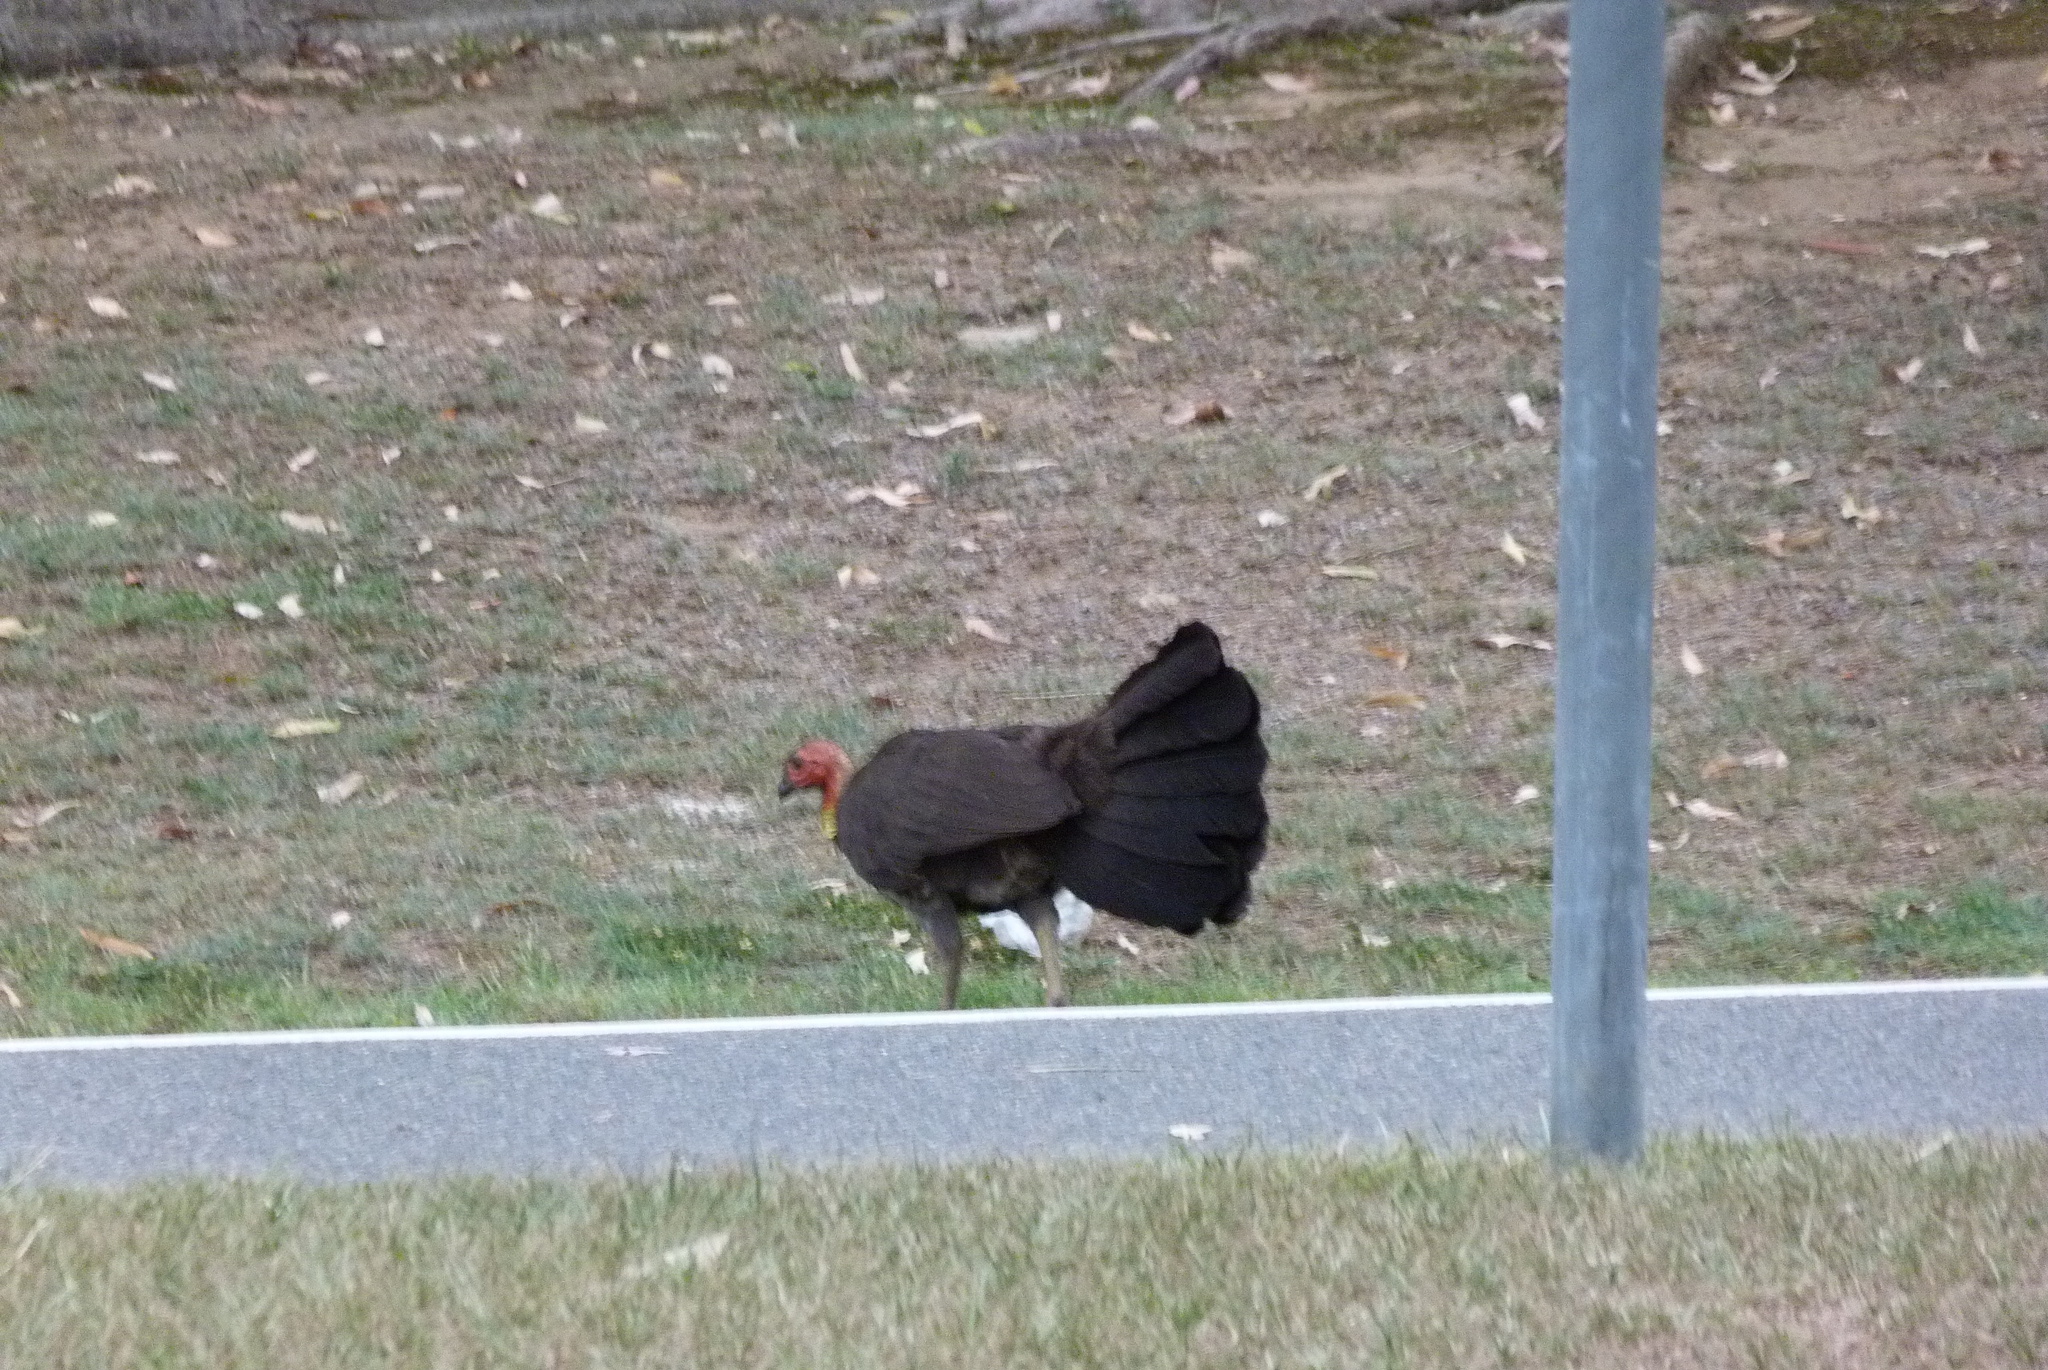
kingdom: Animalia
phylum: Chordata
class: Aves
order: Galliformes
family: Megapodiidae
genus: Alectura
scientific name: Alectura lathami
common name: Australian brushturkey
